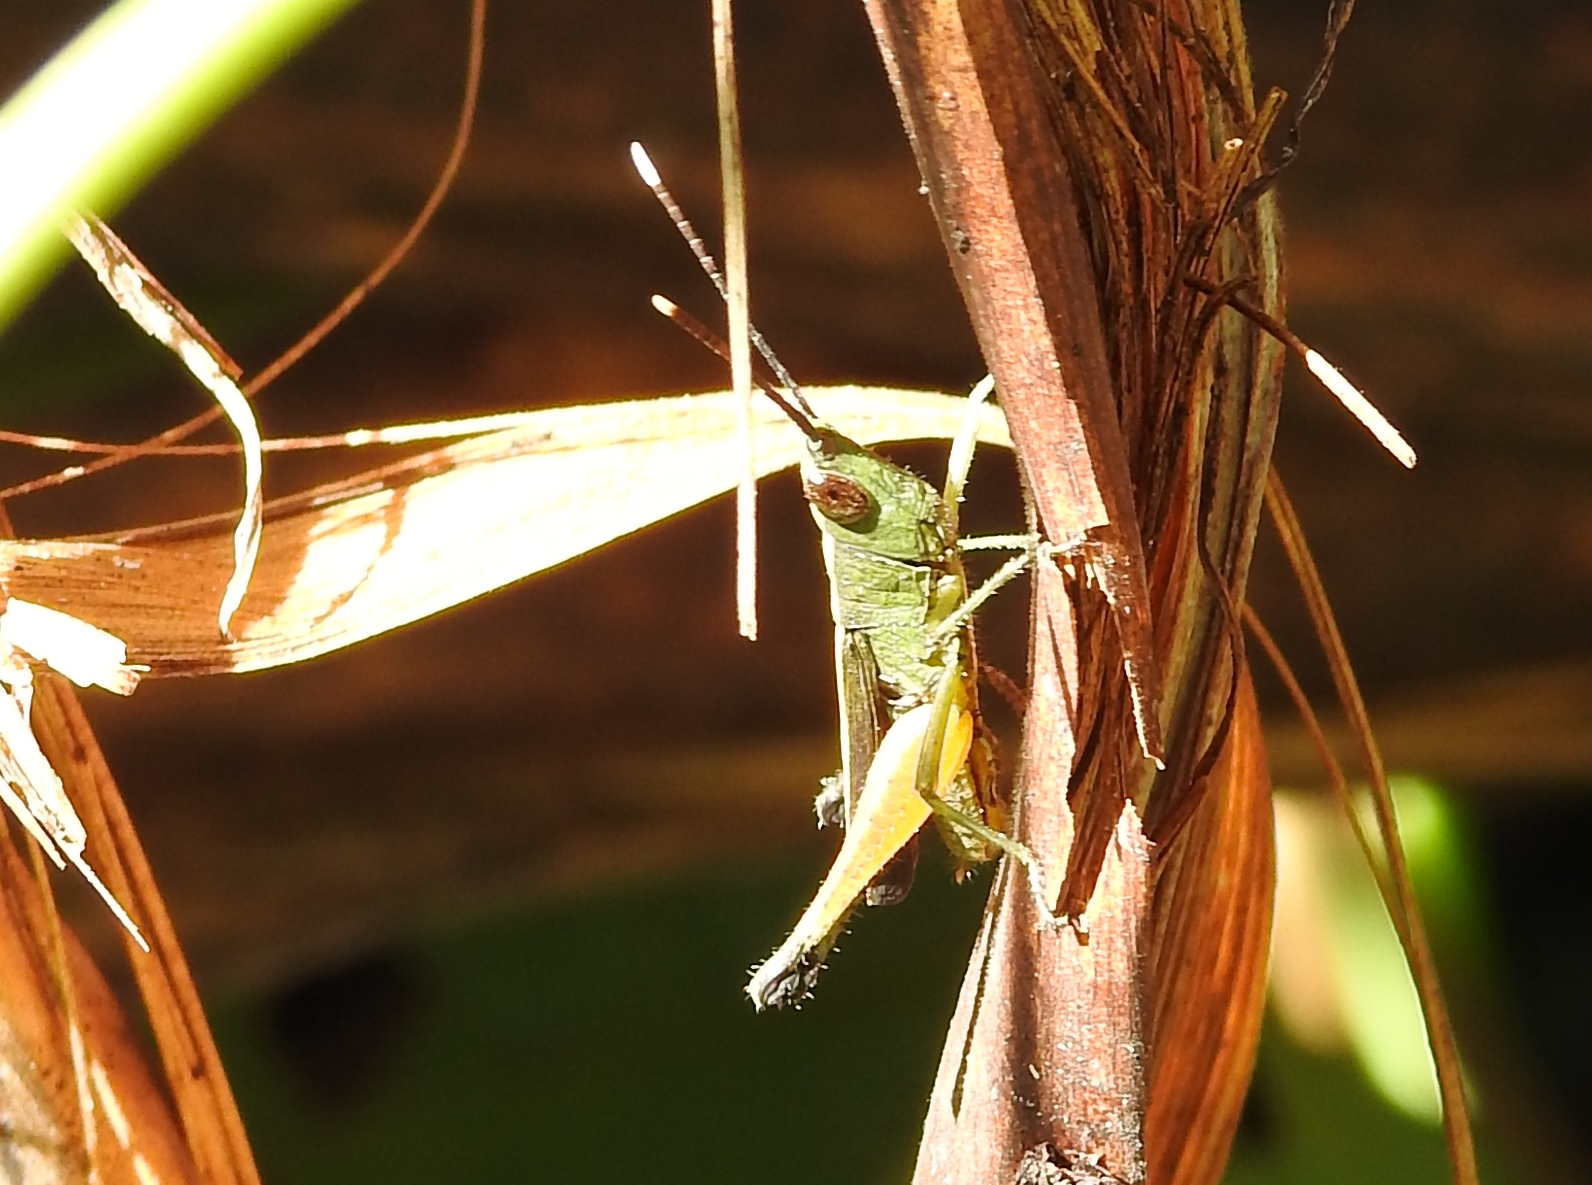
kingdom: Animalia
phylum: Arthropoda
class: Insecta
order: Orthoptera
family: Acrididae
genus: Phlaeoba
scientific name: Phlaeoba antennata
